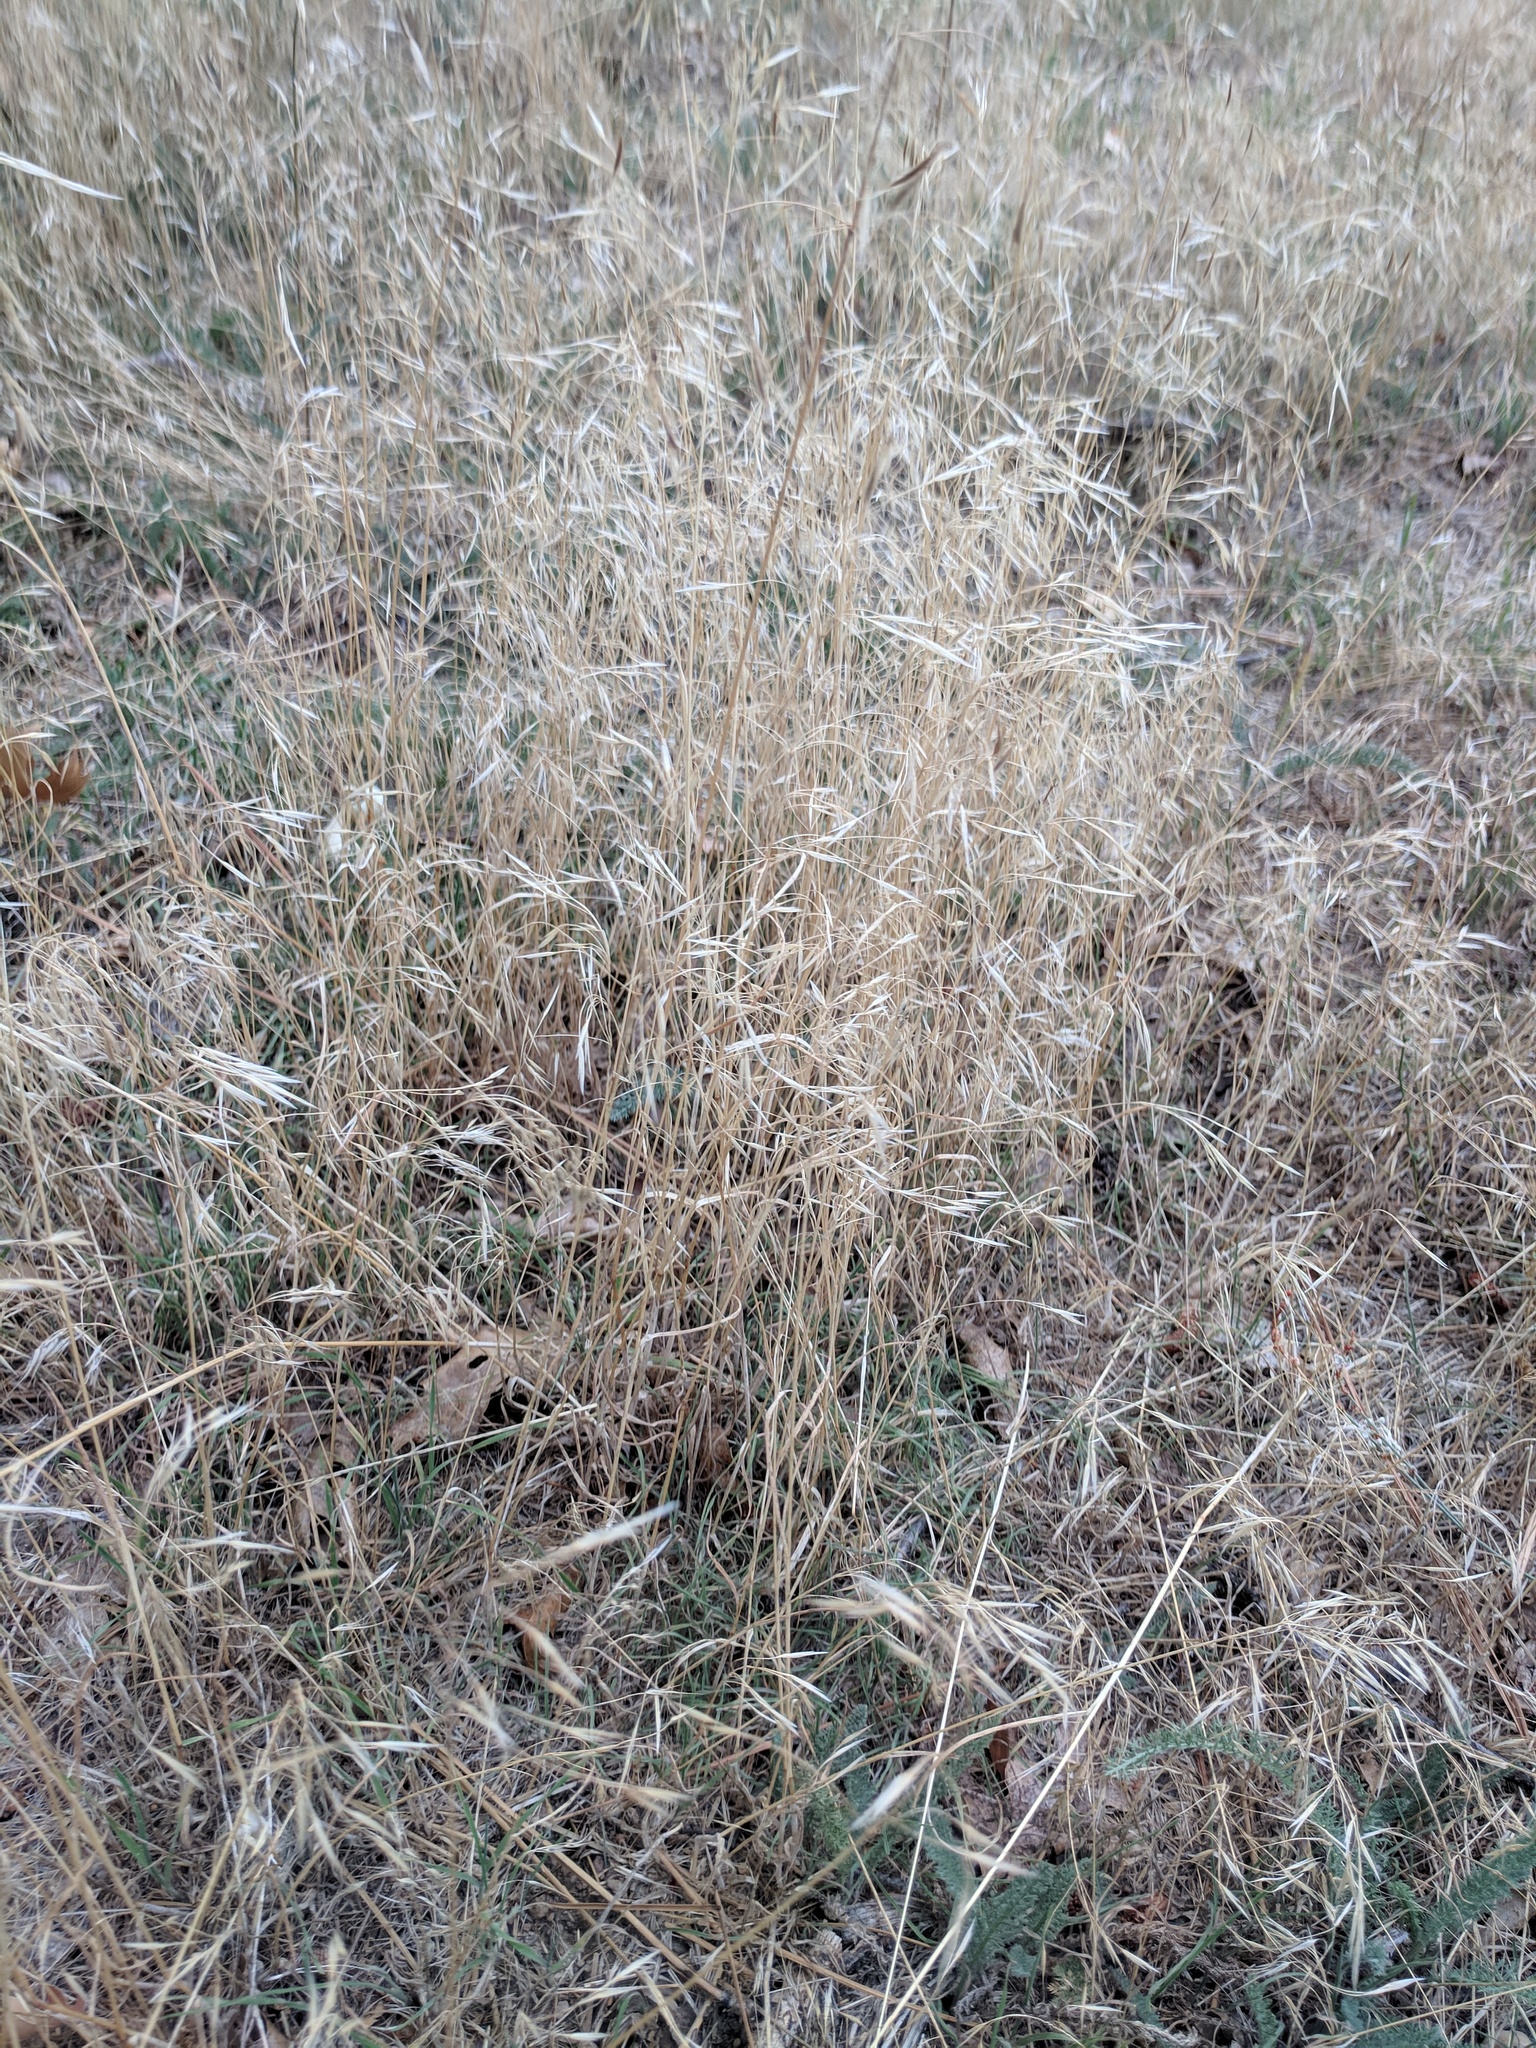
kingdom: Plantae
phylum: Tracheophyta
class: Liliopsida
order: Poales
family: Poaceae
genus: Bromus
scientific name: Bromus tectorum
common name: Cheatgrass
